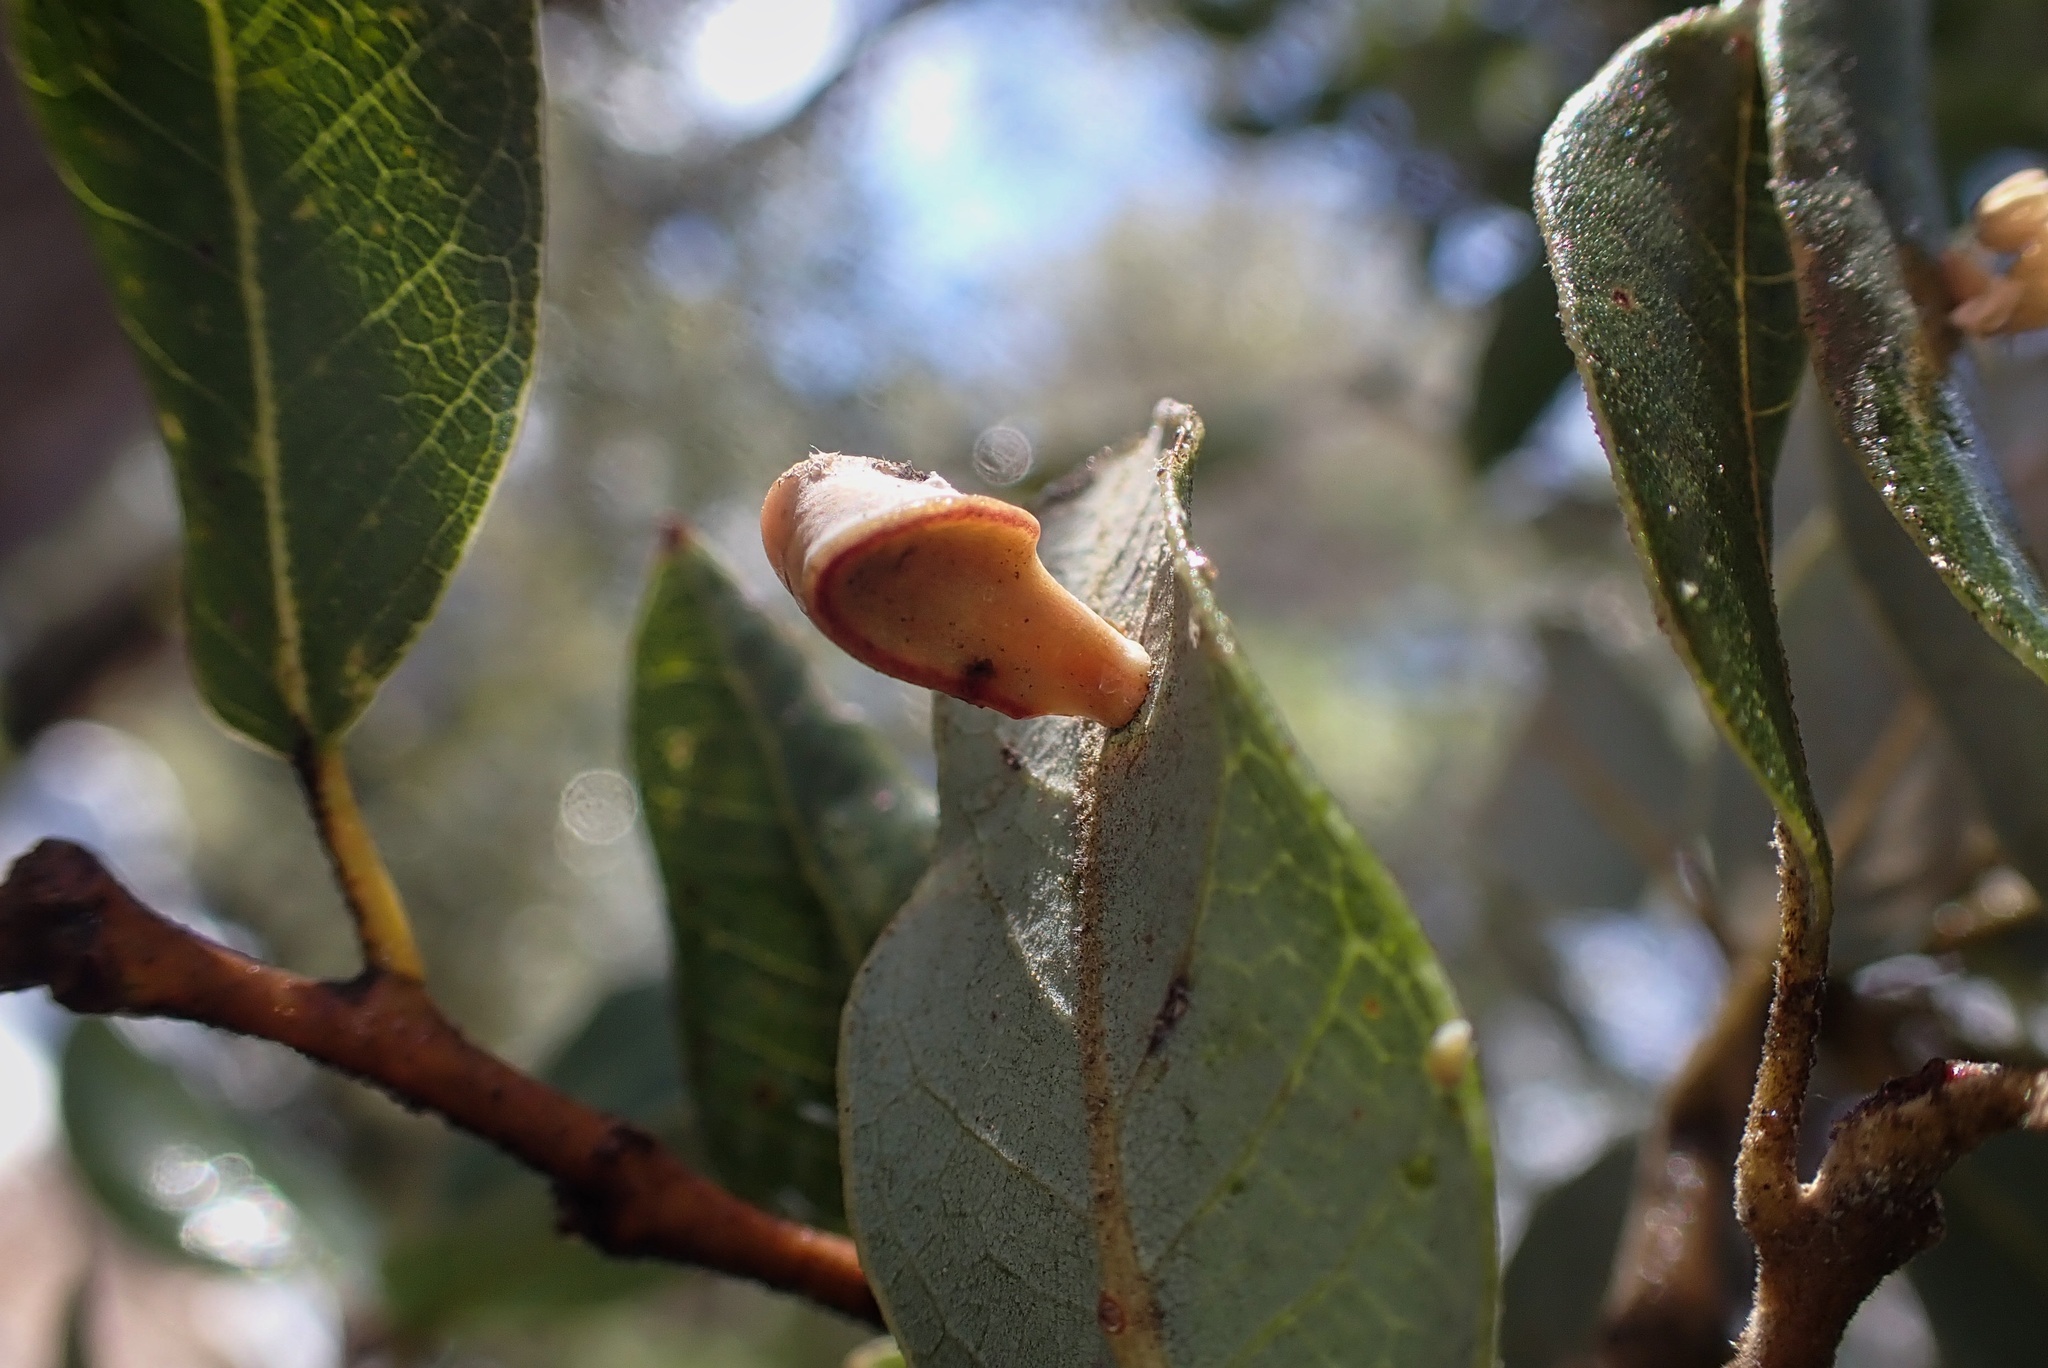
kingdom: Animalia
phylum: Arthropoda
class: Insecta
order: Hymenoptera
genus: Paracraspis
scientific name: Paracraspis
